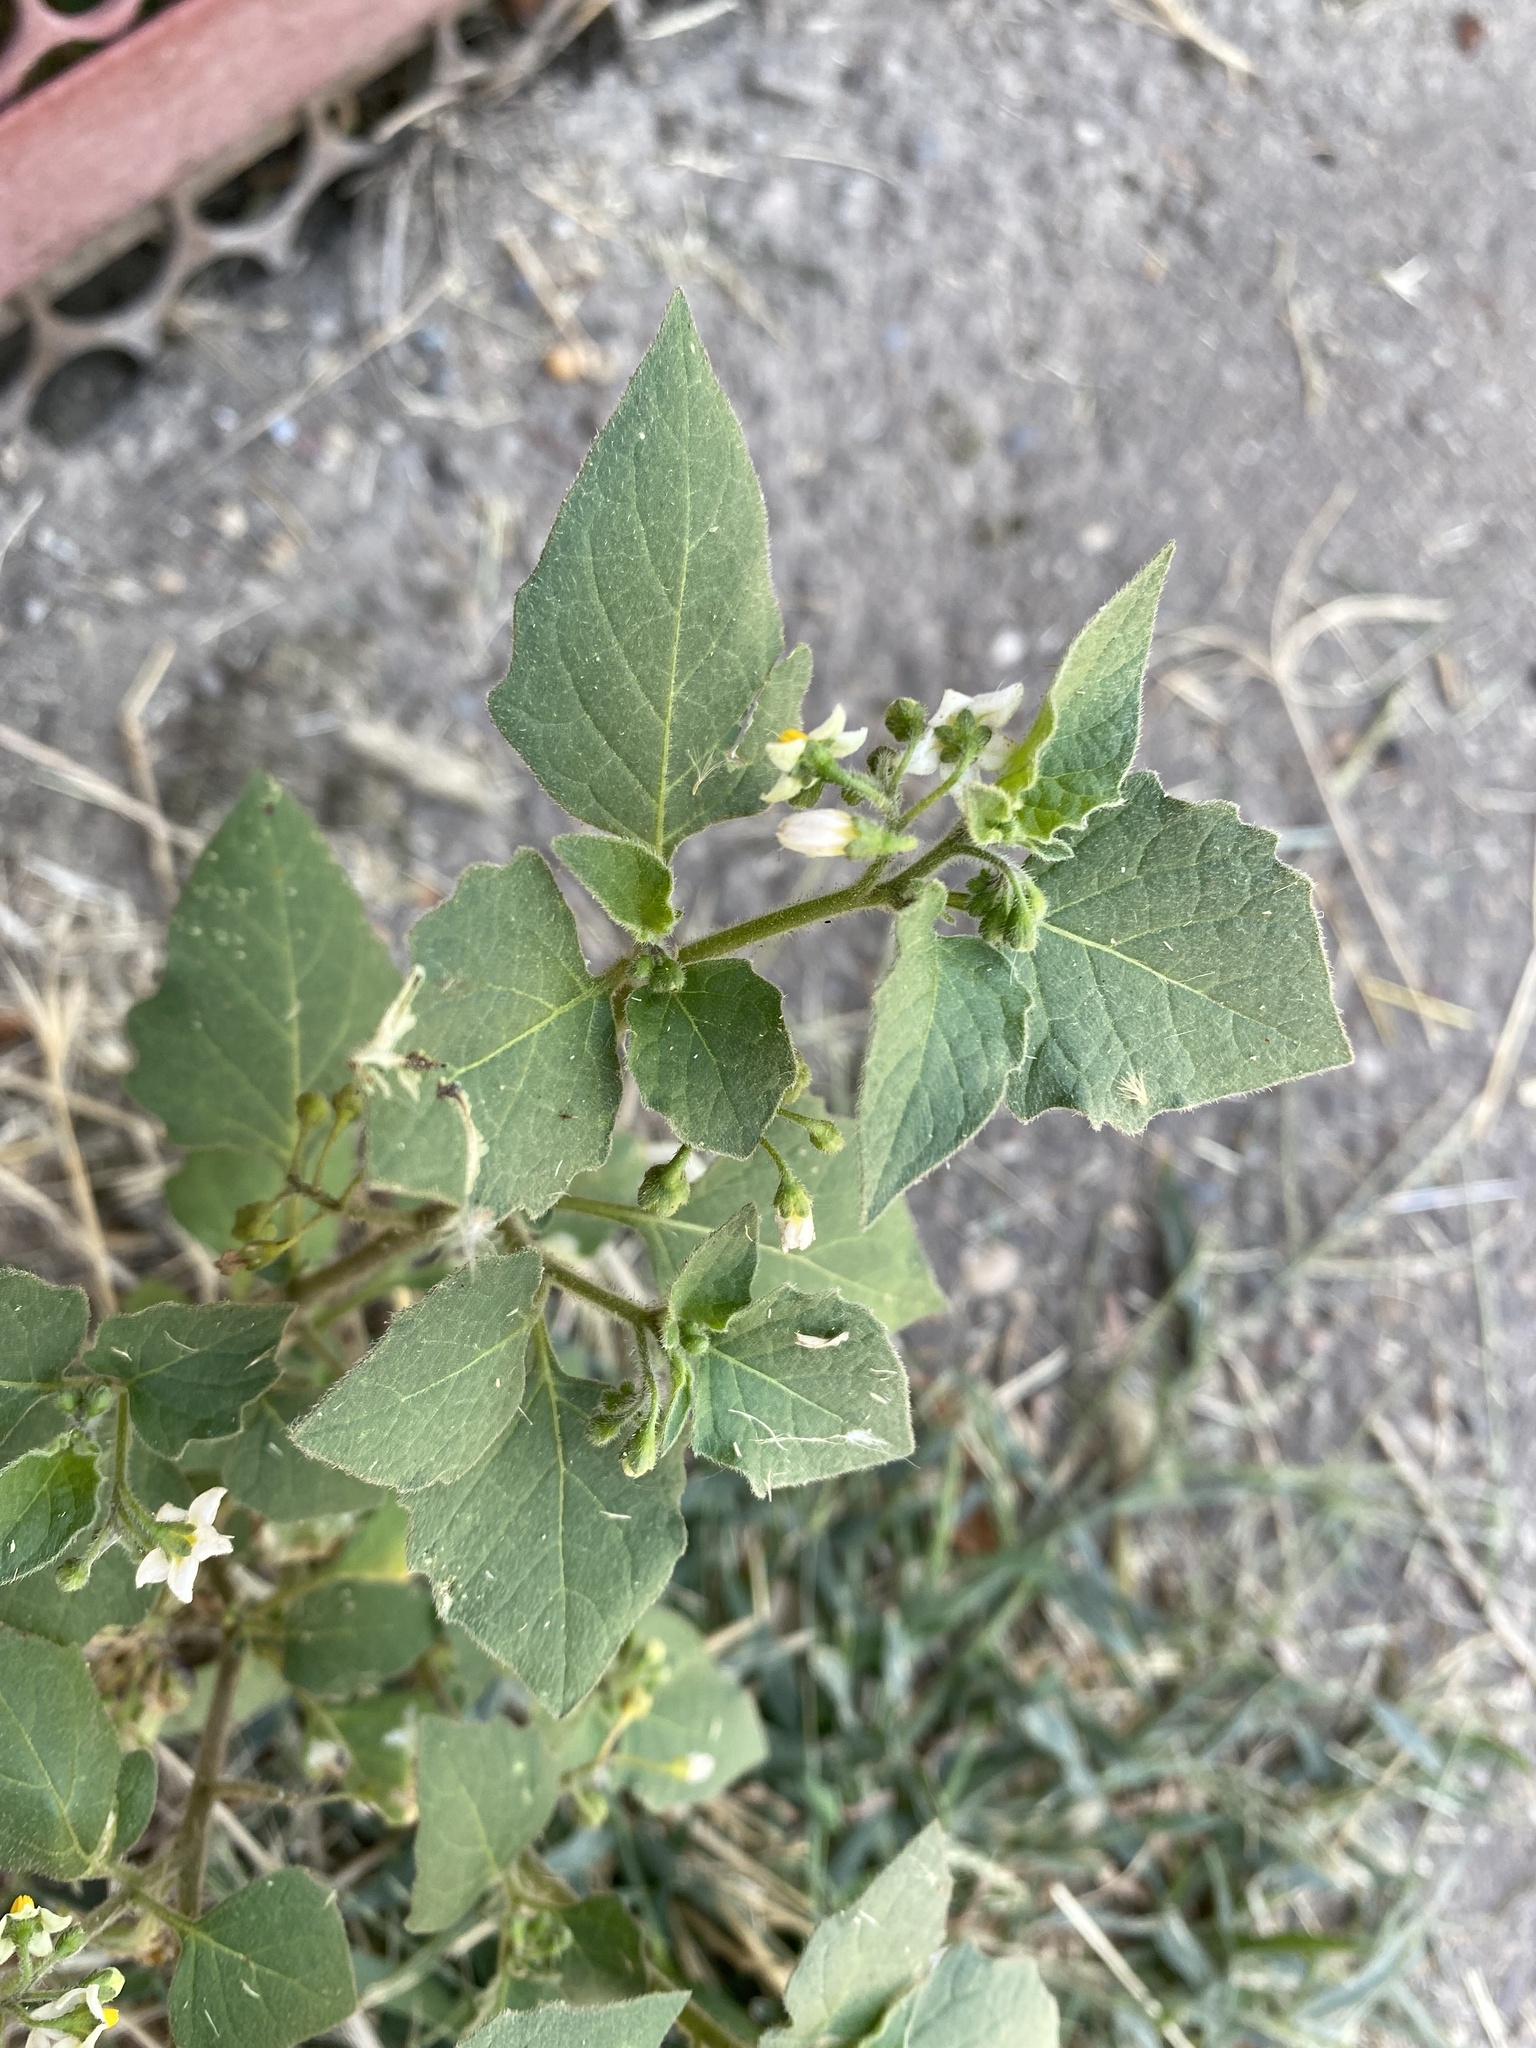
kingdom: Plantae
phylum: Tracheophyta
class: Magnoliopsida
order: Solanales
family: Solanaceae
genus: Solanum
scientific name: Solanum nigrum
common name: Black nightshade
